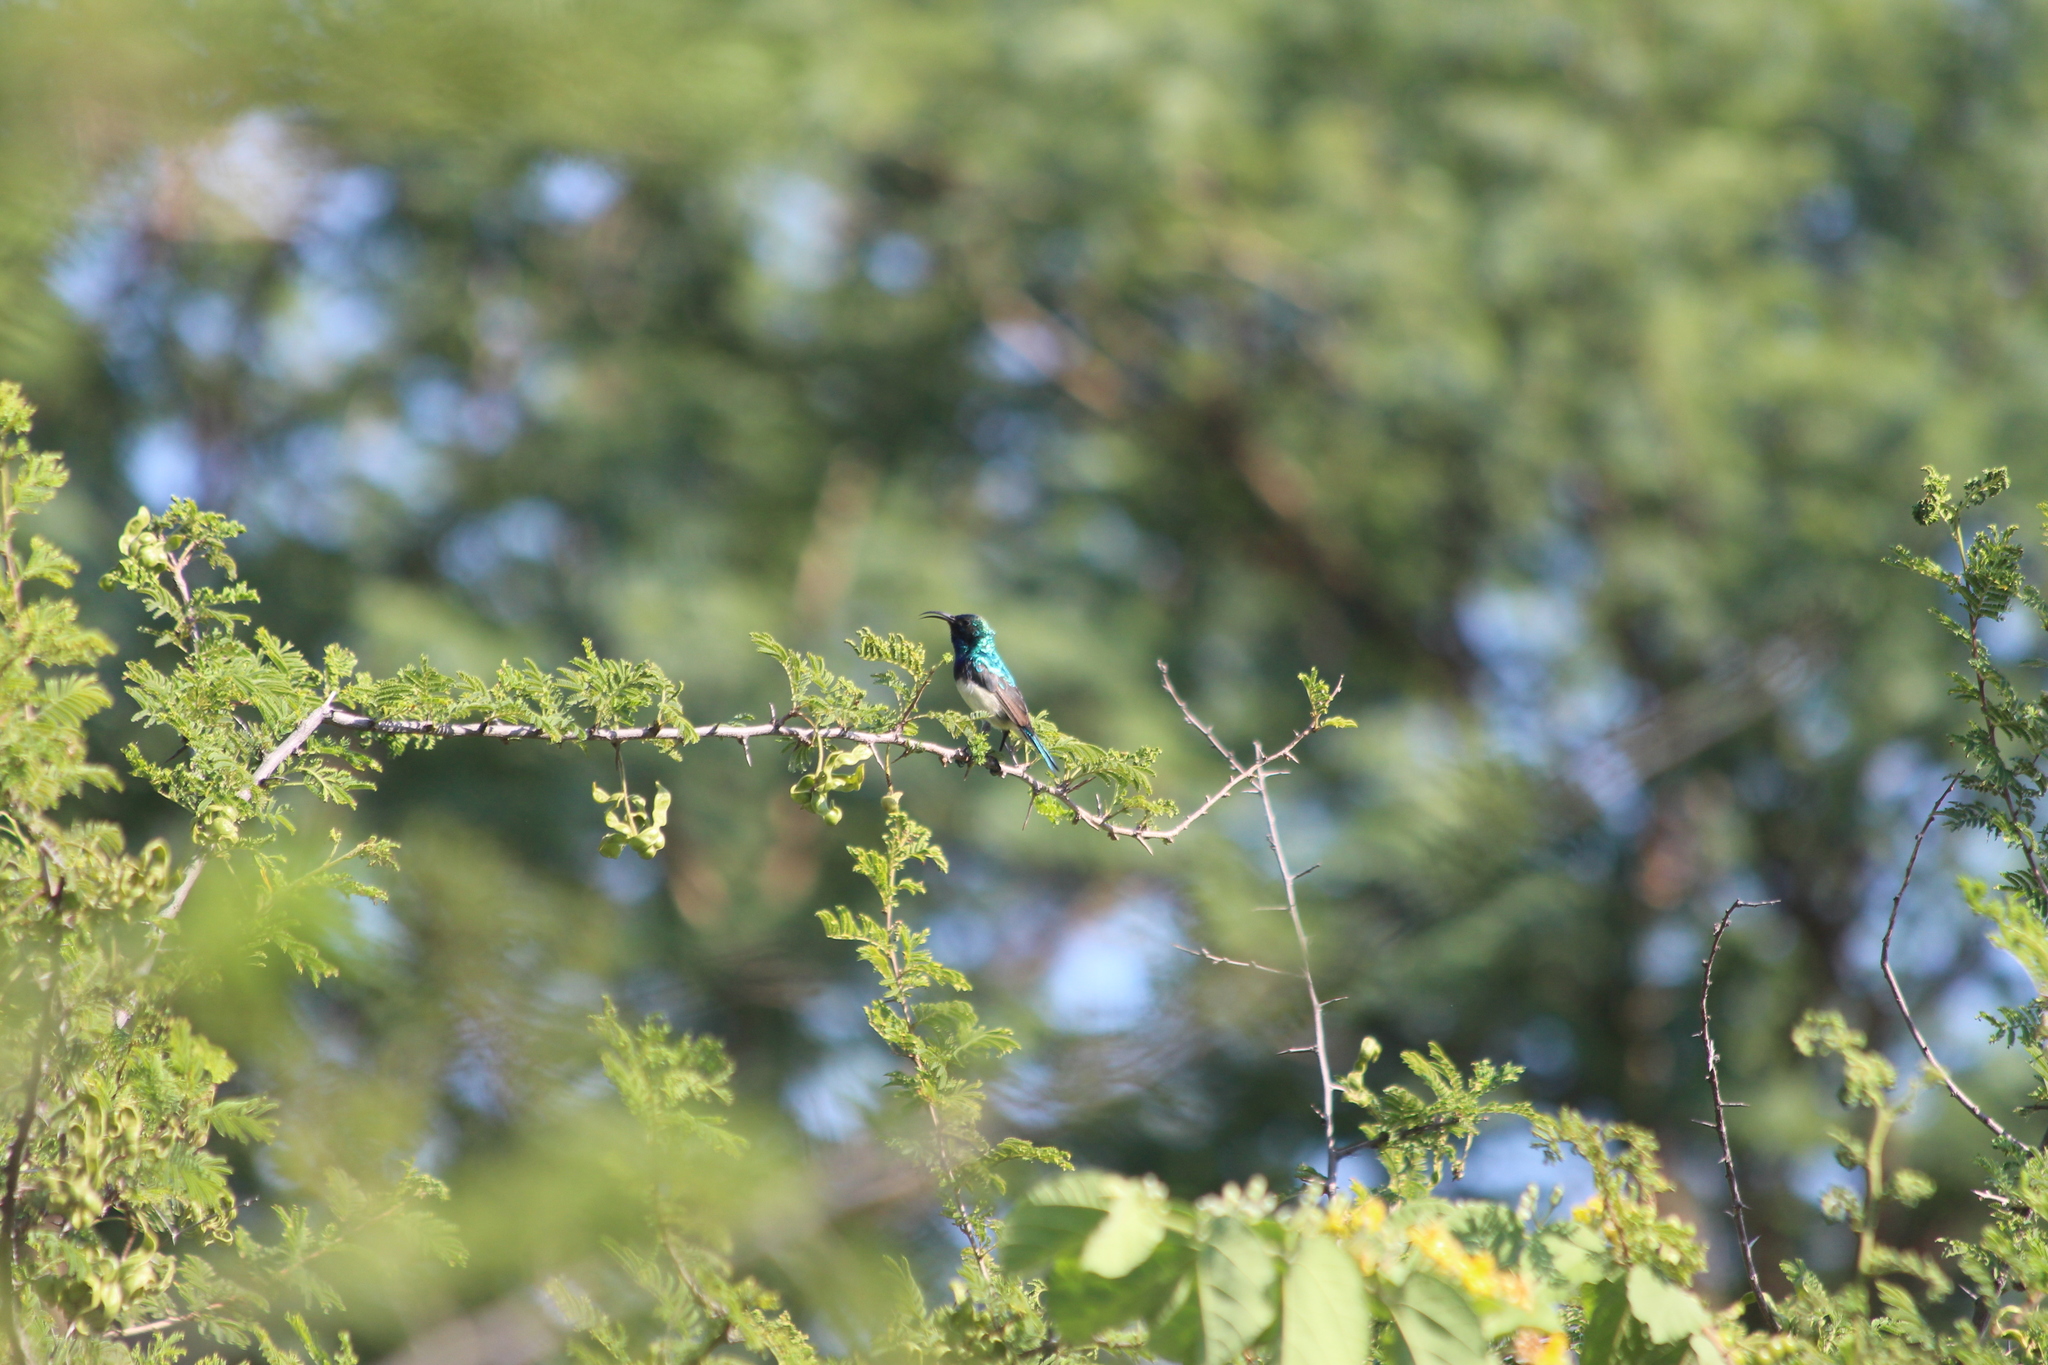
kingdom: Animalia
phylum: Chordata
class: Aves
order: Passeriformes
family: Nectariniidae
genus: Cinnyris
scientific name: Cinnyris talatala
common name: White-bellied sunbird
